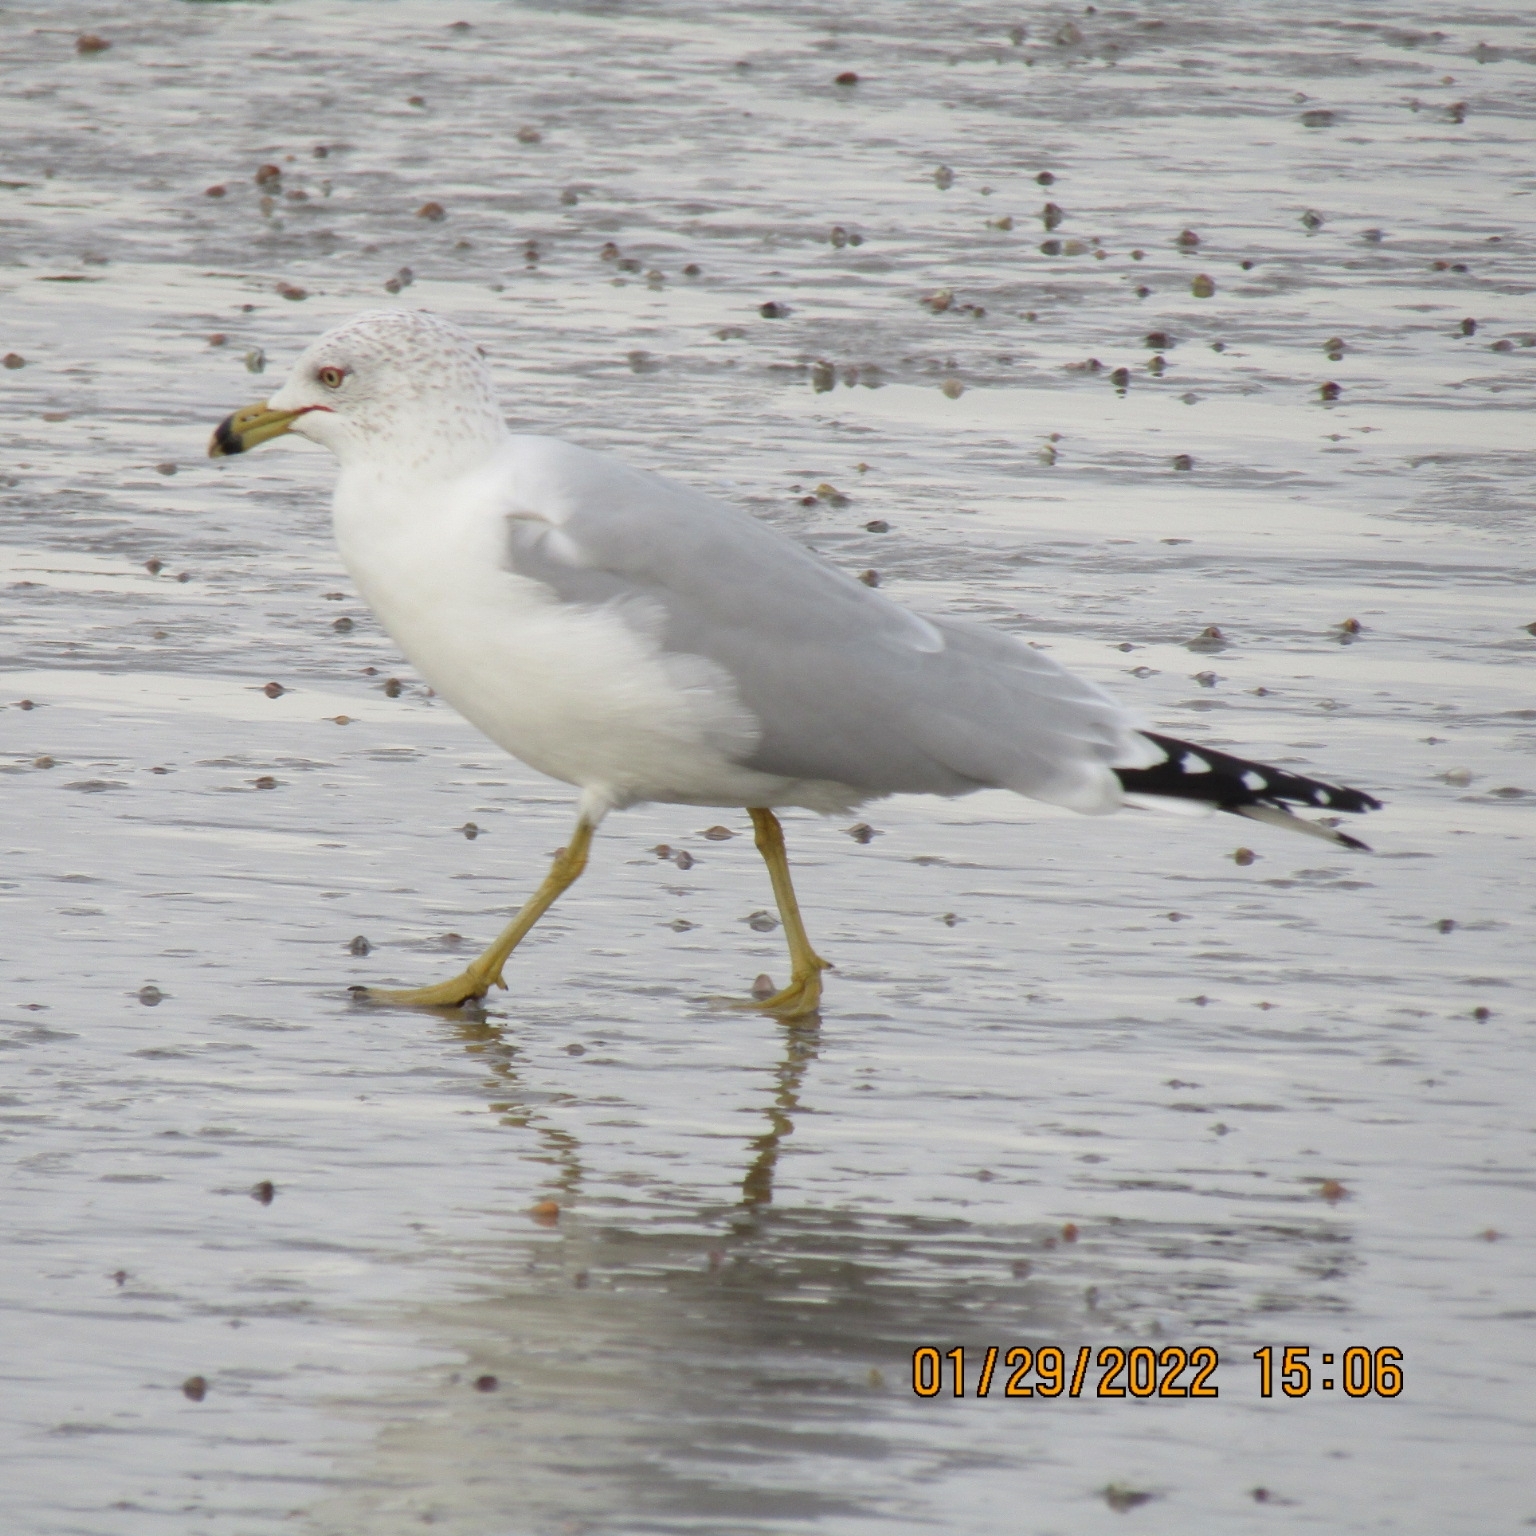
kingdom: Animalia
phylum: Chordata
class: Aves
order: Charadriiformes
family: Laridae
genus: Larus
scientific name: Larus delawarensis
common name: Ring-billed gull
